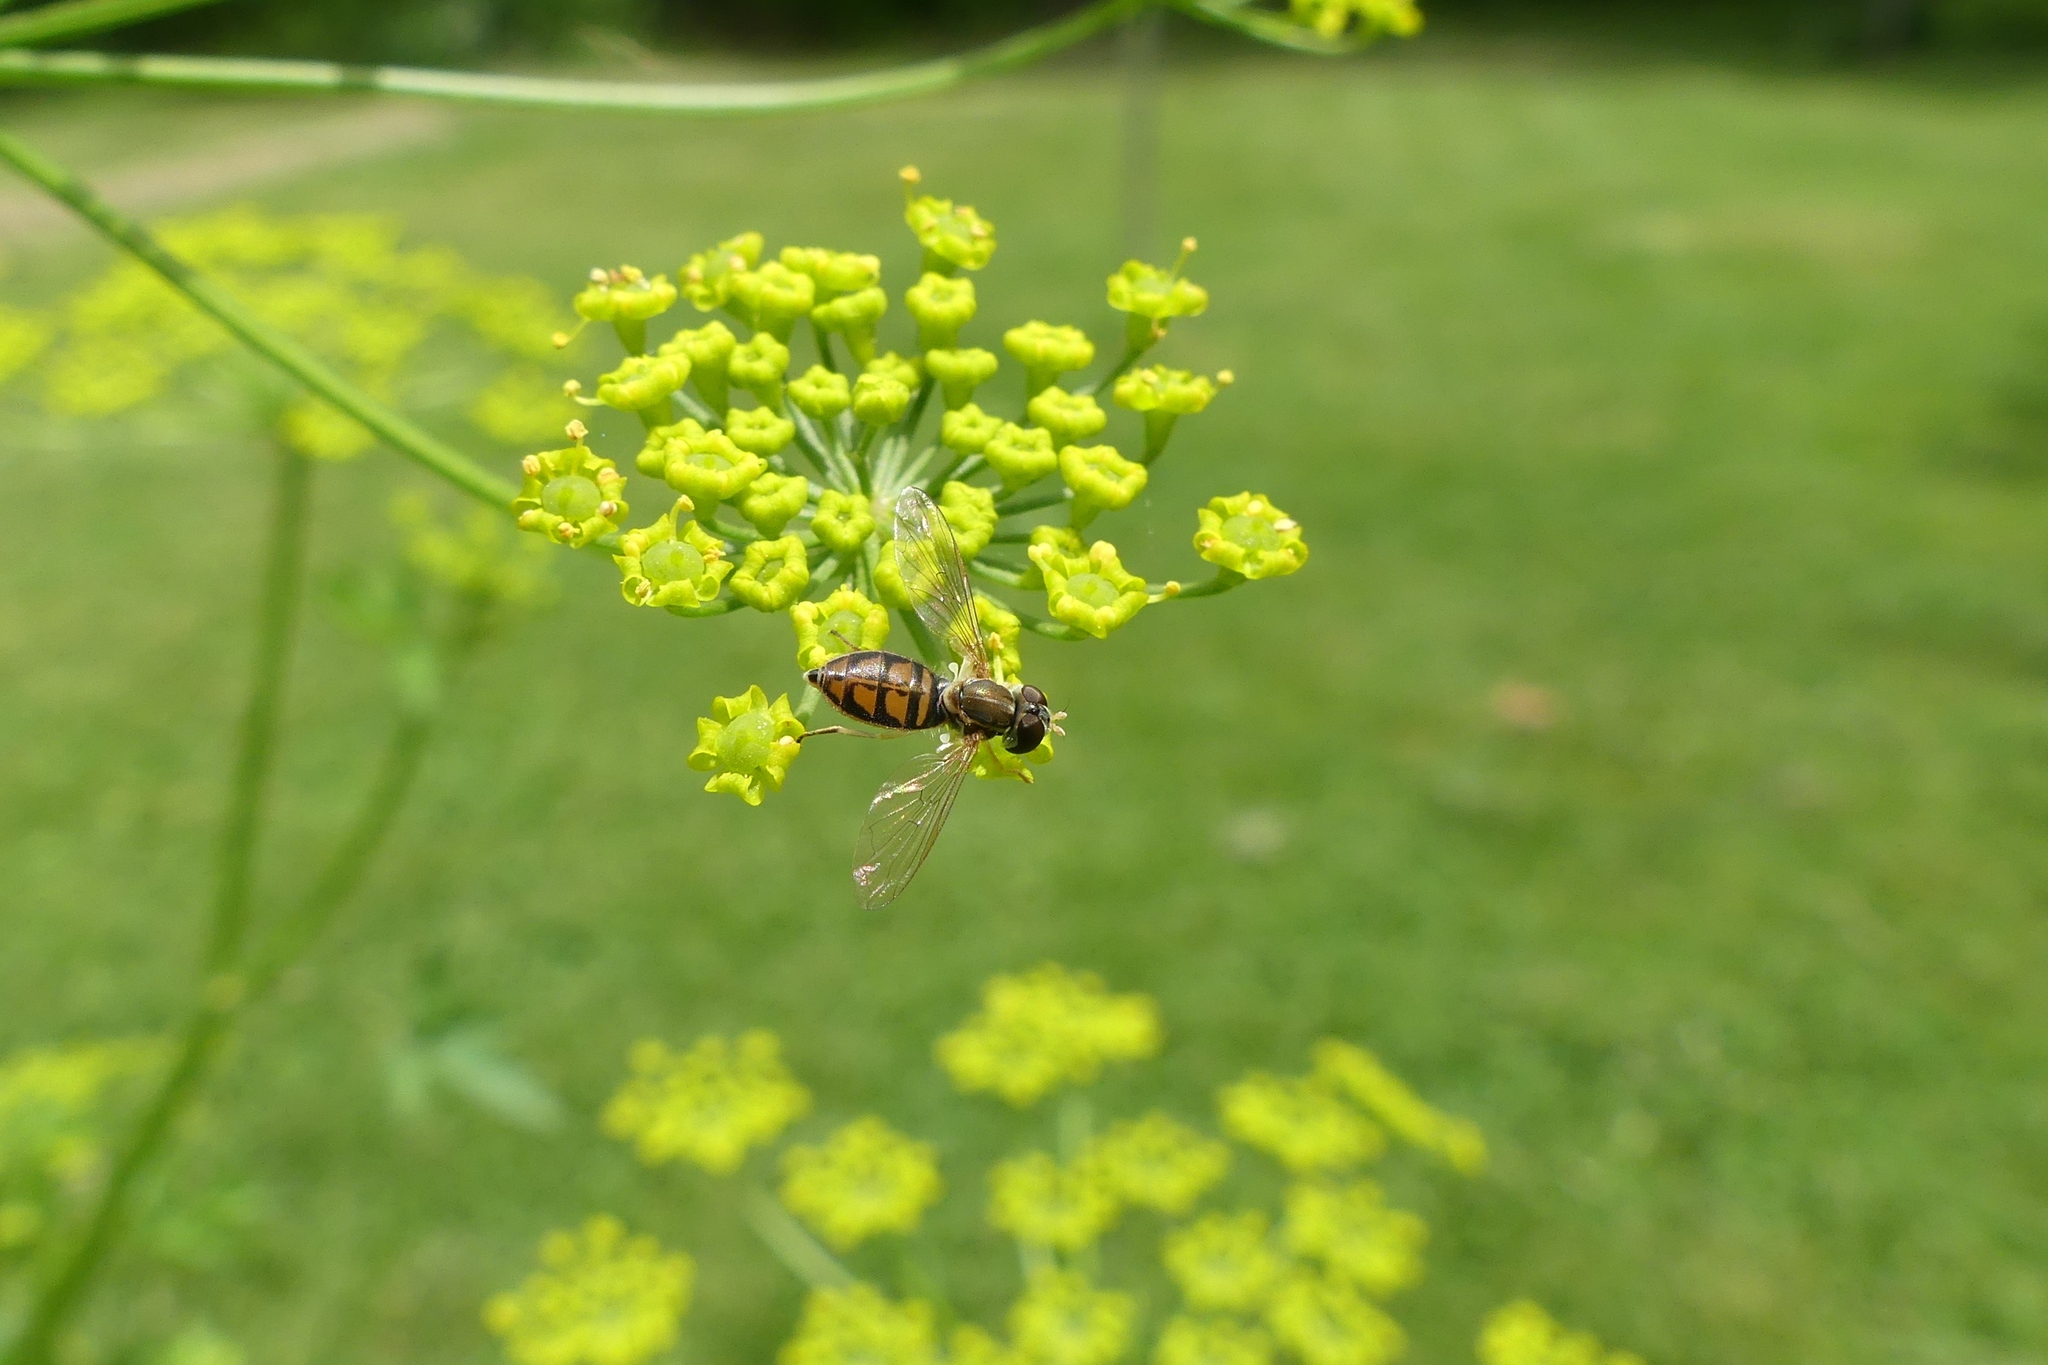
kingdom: Animalia
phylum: Arthropoda
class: Insecta
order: Diptera
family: Syrphidae
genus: Toxomerus
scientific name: Toxomerus marginatus
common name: Syrphid fly
